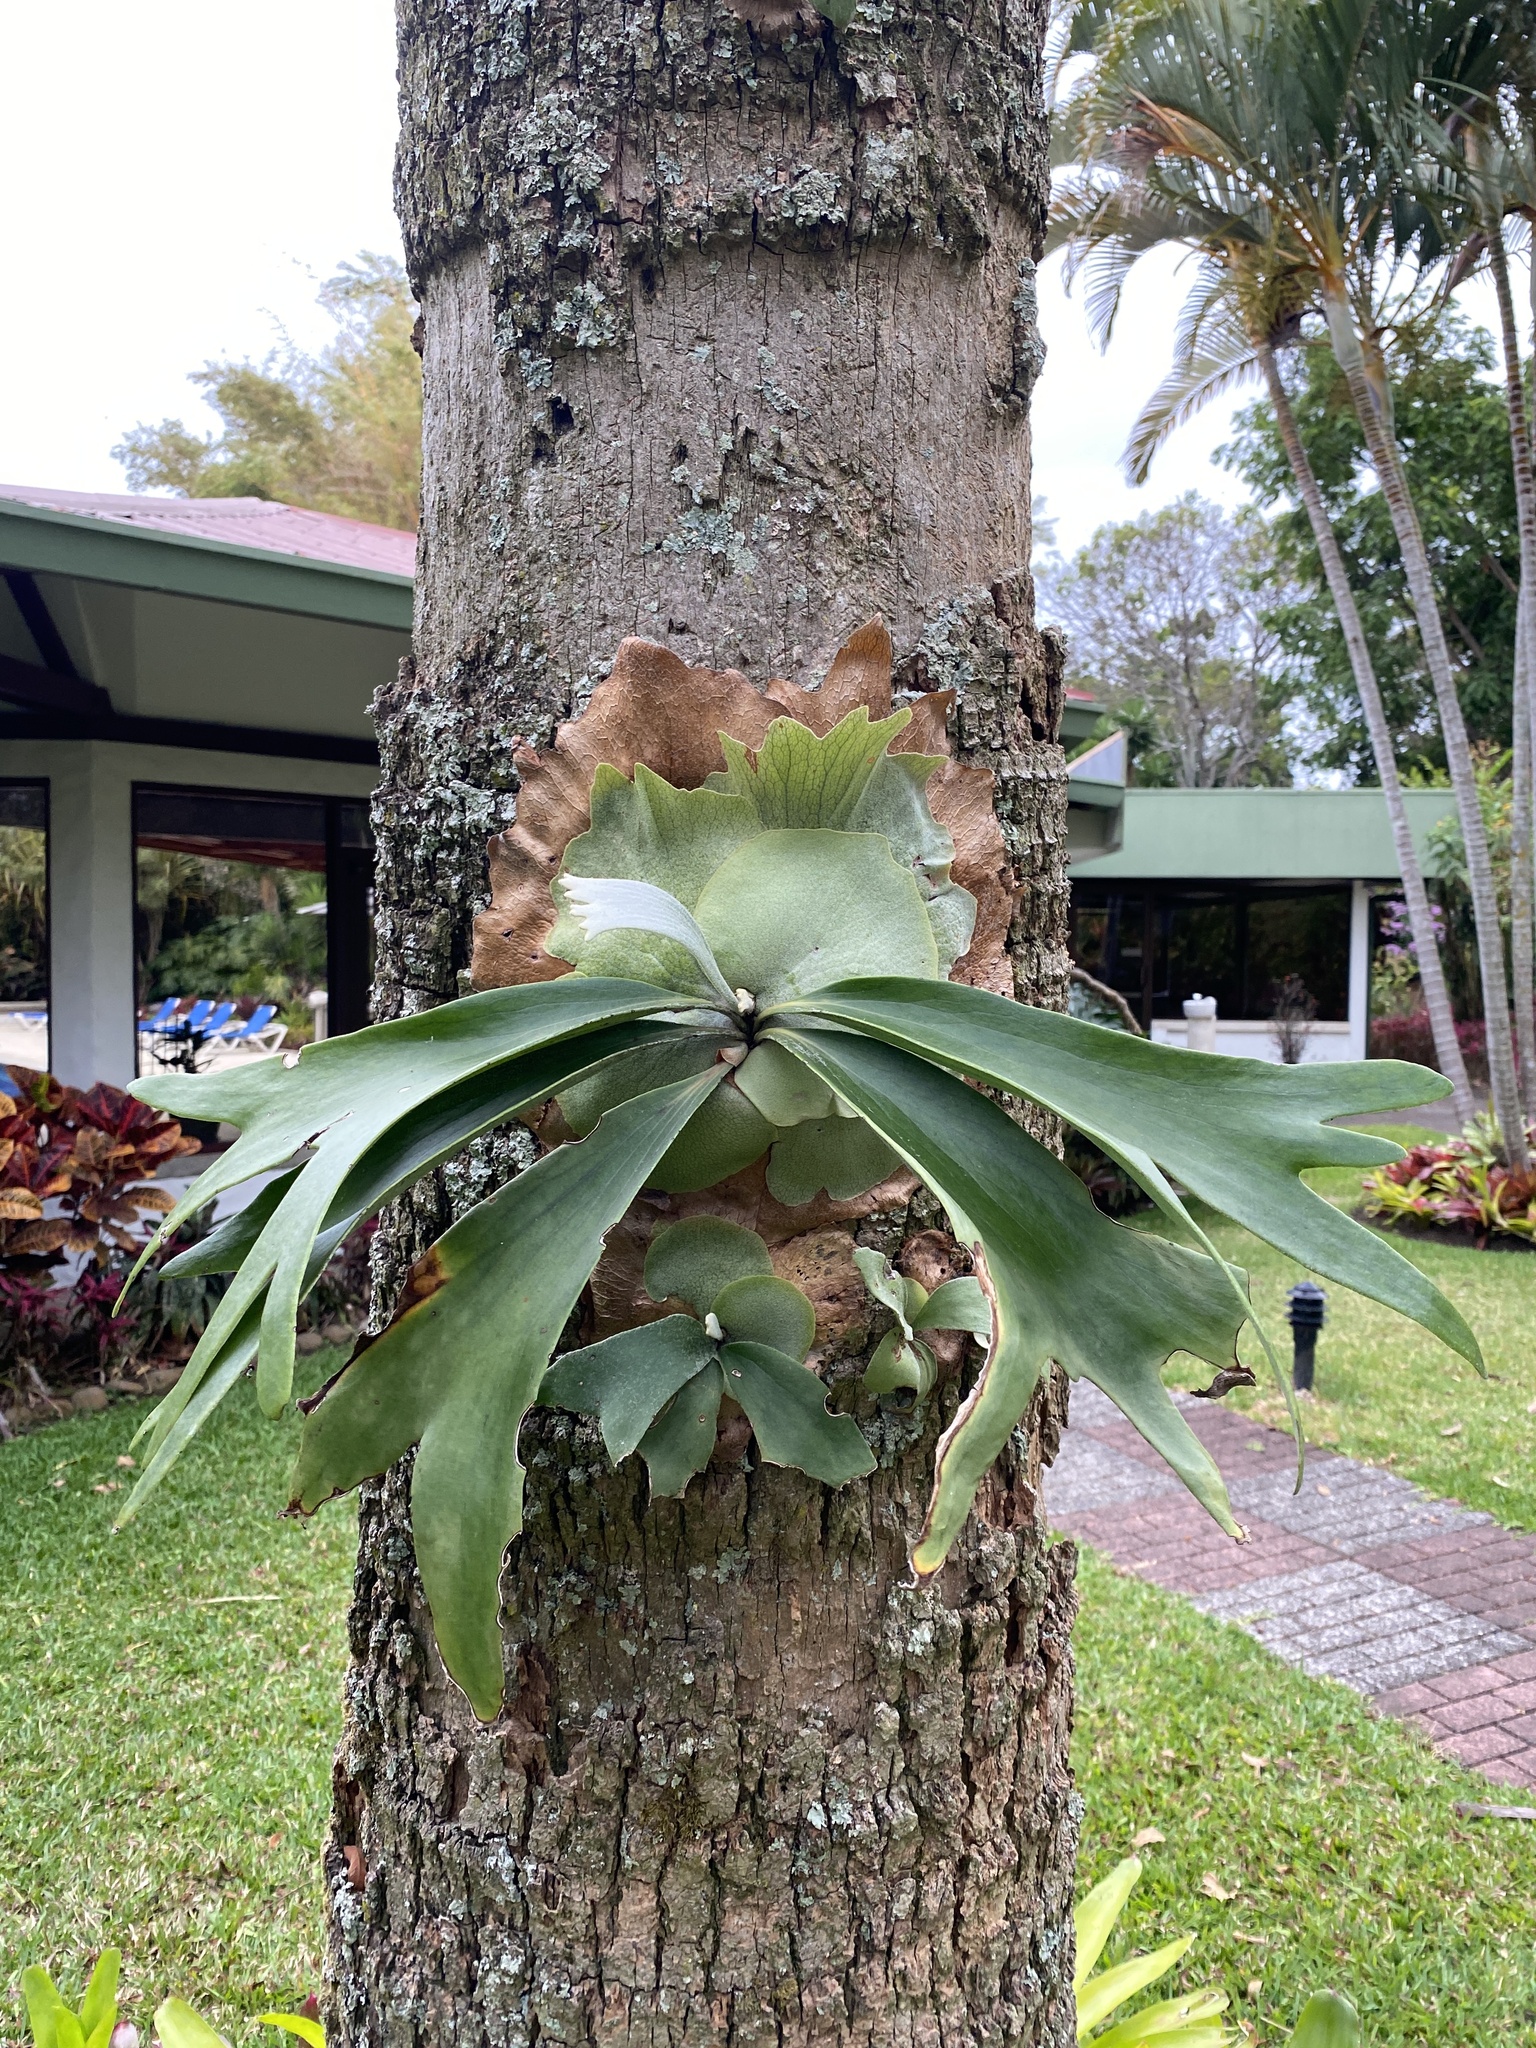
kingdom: Plantae
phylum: Tracheophyta
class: Polypodiopsida
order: Polypodiales
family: Polypodiaceae
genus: Platycerium
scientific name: Platycerium bifurcatum
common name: Elkhorn fern
